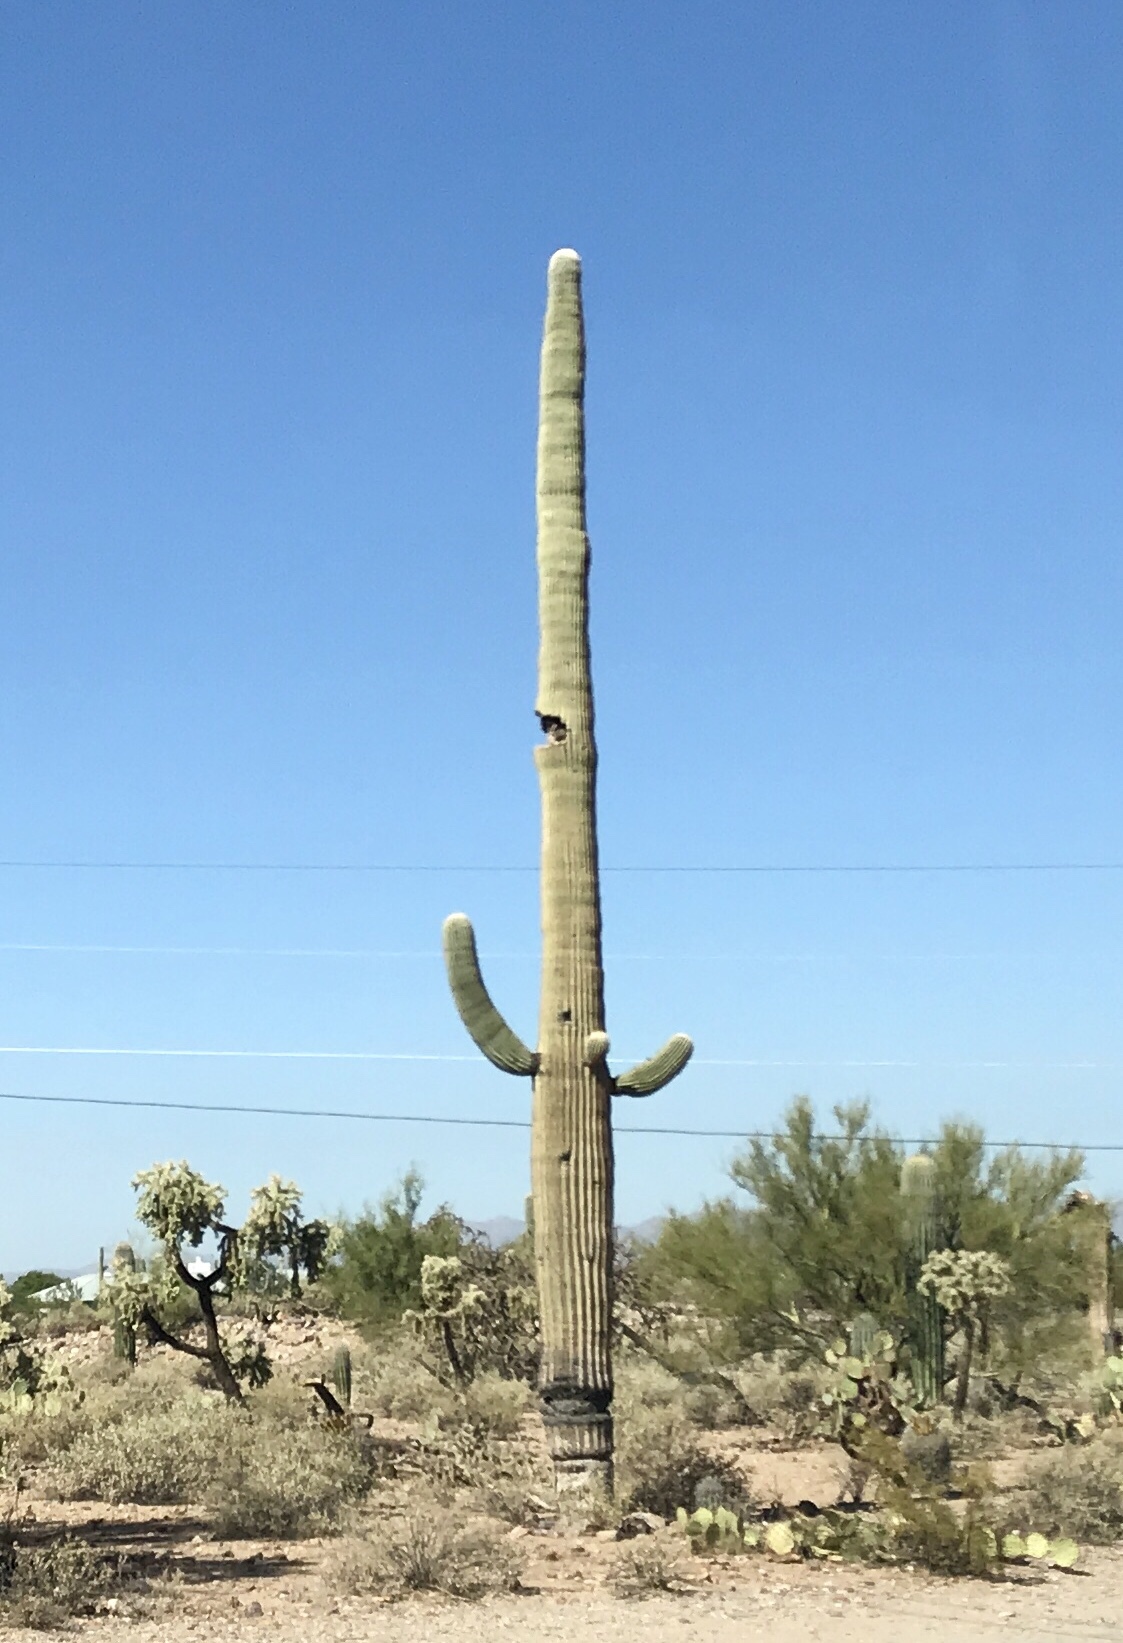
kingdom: Plantae
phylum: Tracheophyta
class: Magnoliopsida
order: Caryophyllales
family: Cactaceae
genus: Carnegiea
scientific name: Carnegiea gigantea
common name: Saguaro
